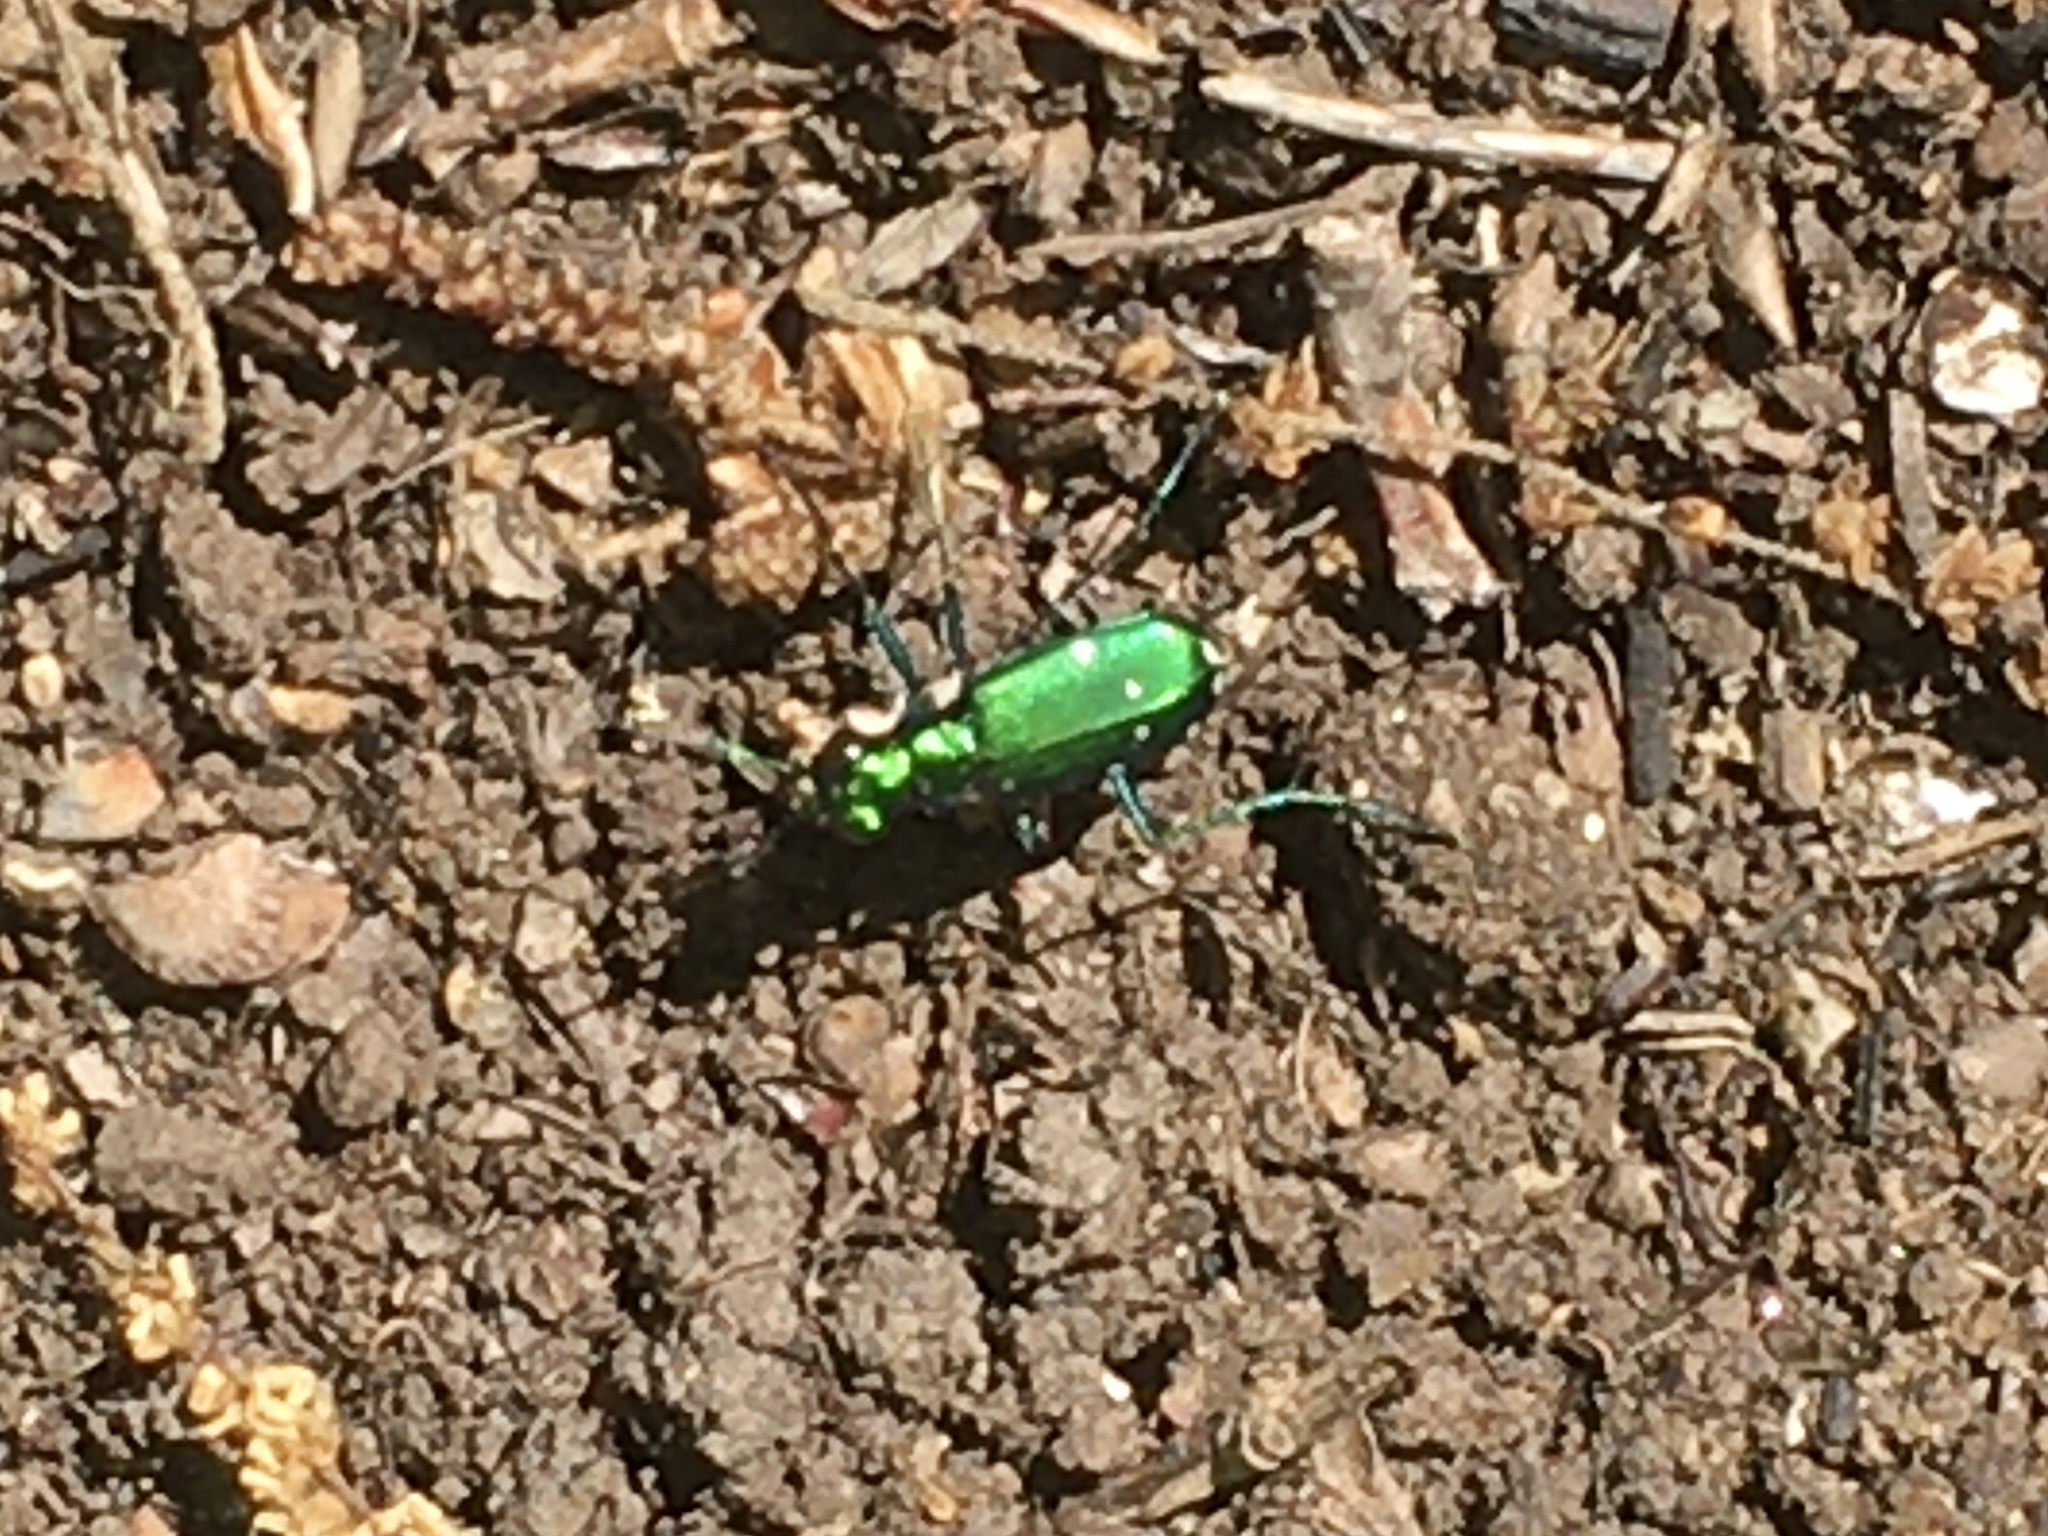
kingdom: Animalia
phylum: Arthropoda
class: Insecta
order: Coleoptera
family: Carabidae
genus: Cicindela
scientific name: Cicindela sexguttata
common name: Six-spotted tiger beetle
